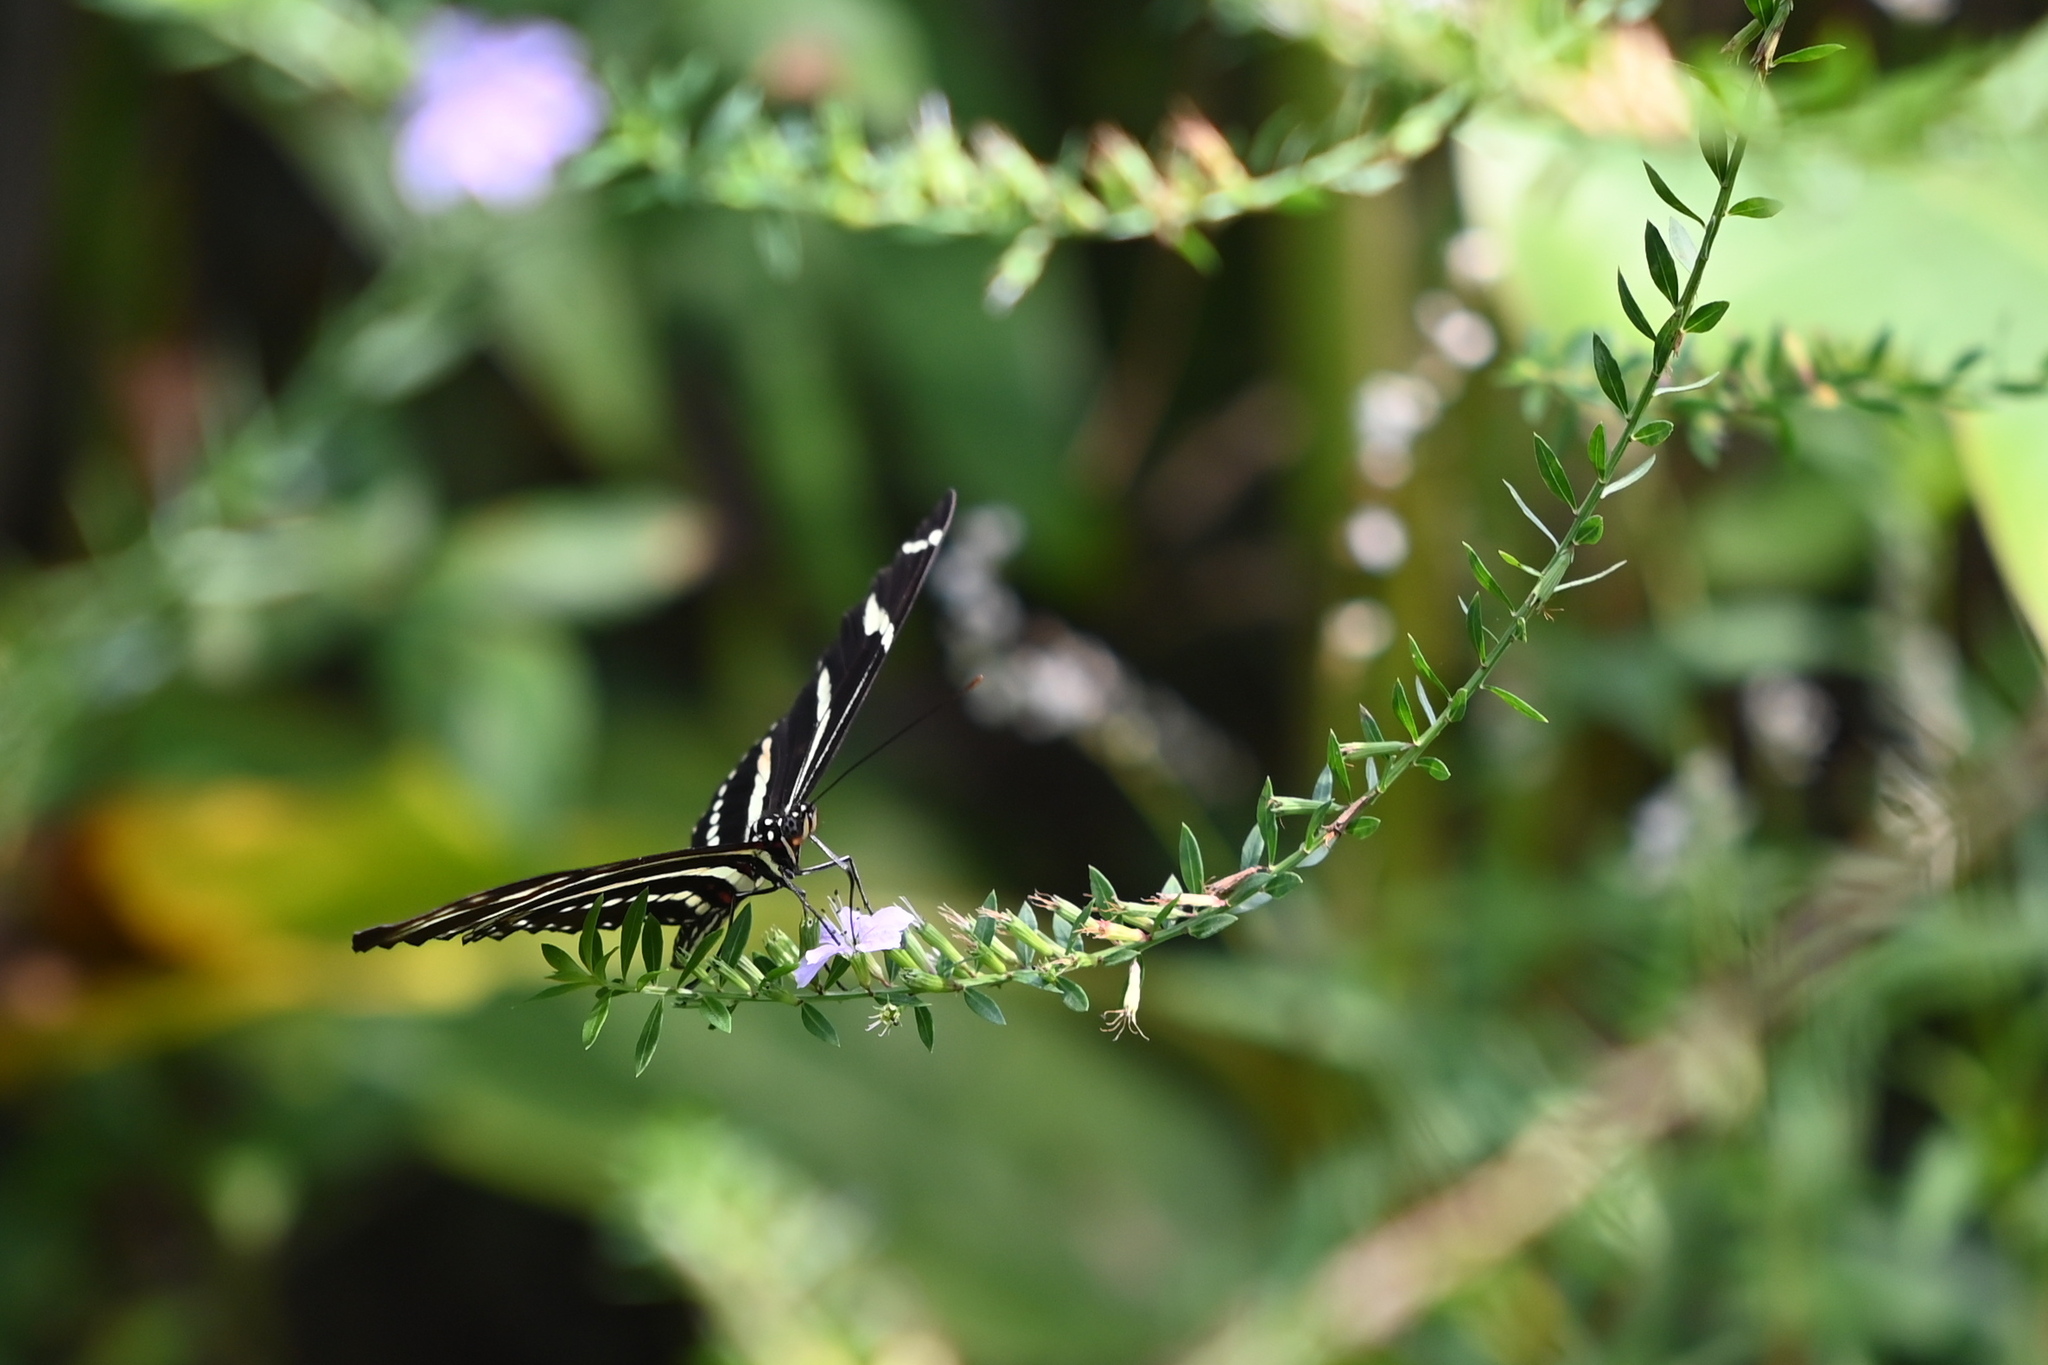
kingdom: Animalia
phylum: Arthropoda
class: Insecta
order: Lepidoptera
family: Nymphalidae
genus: Heliconius
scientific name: Heliconius charithonia
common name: Zebra long wing
